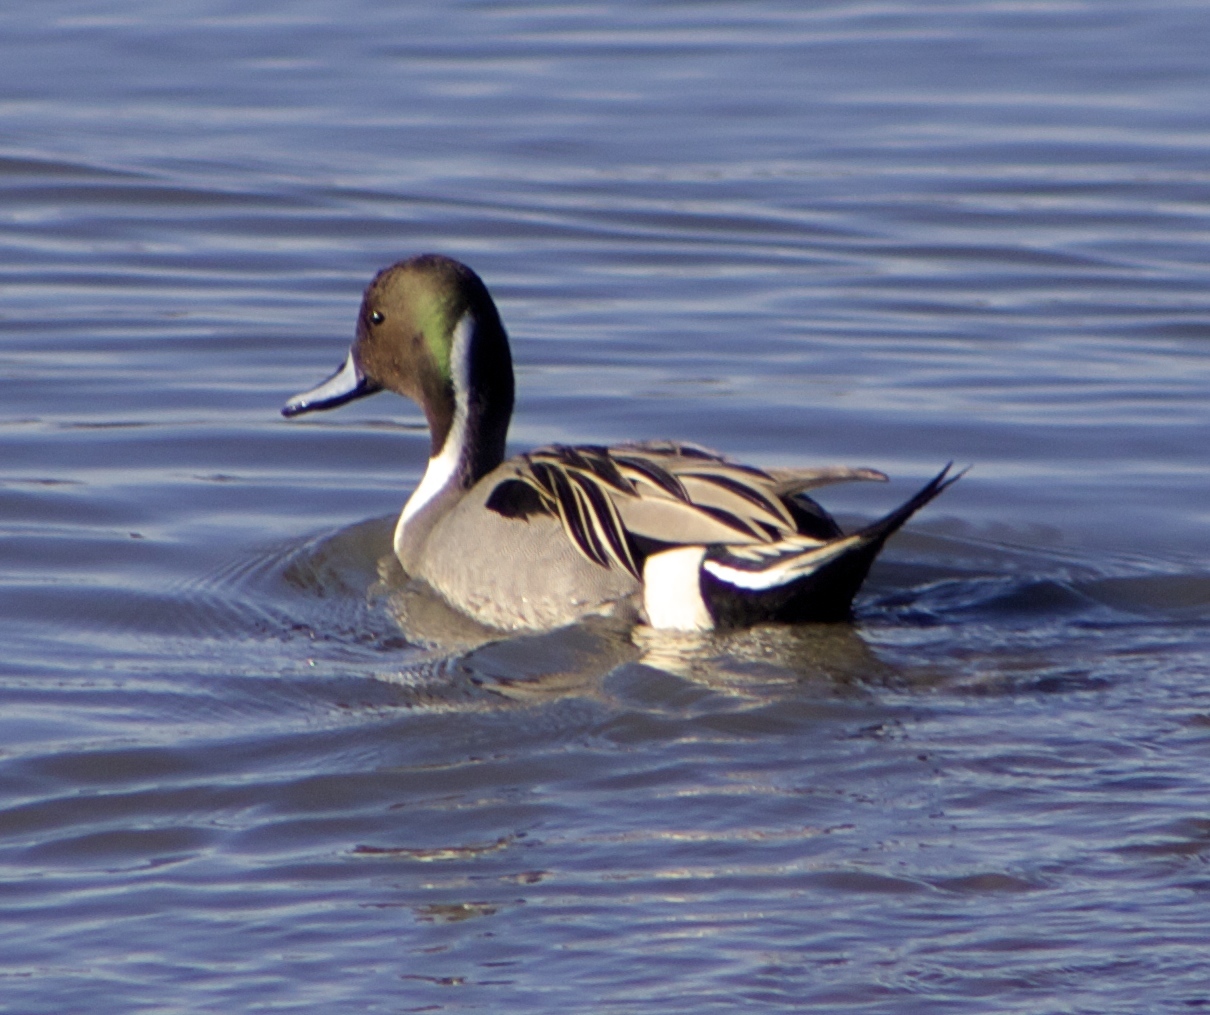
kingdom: Animalia
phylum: Chordata
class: Aves
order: Anseriformes
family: Anatidae
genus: Anas
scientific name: Anas acuta
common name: Northern pintail
